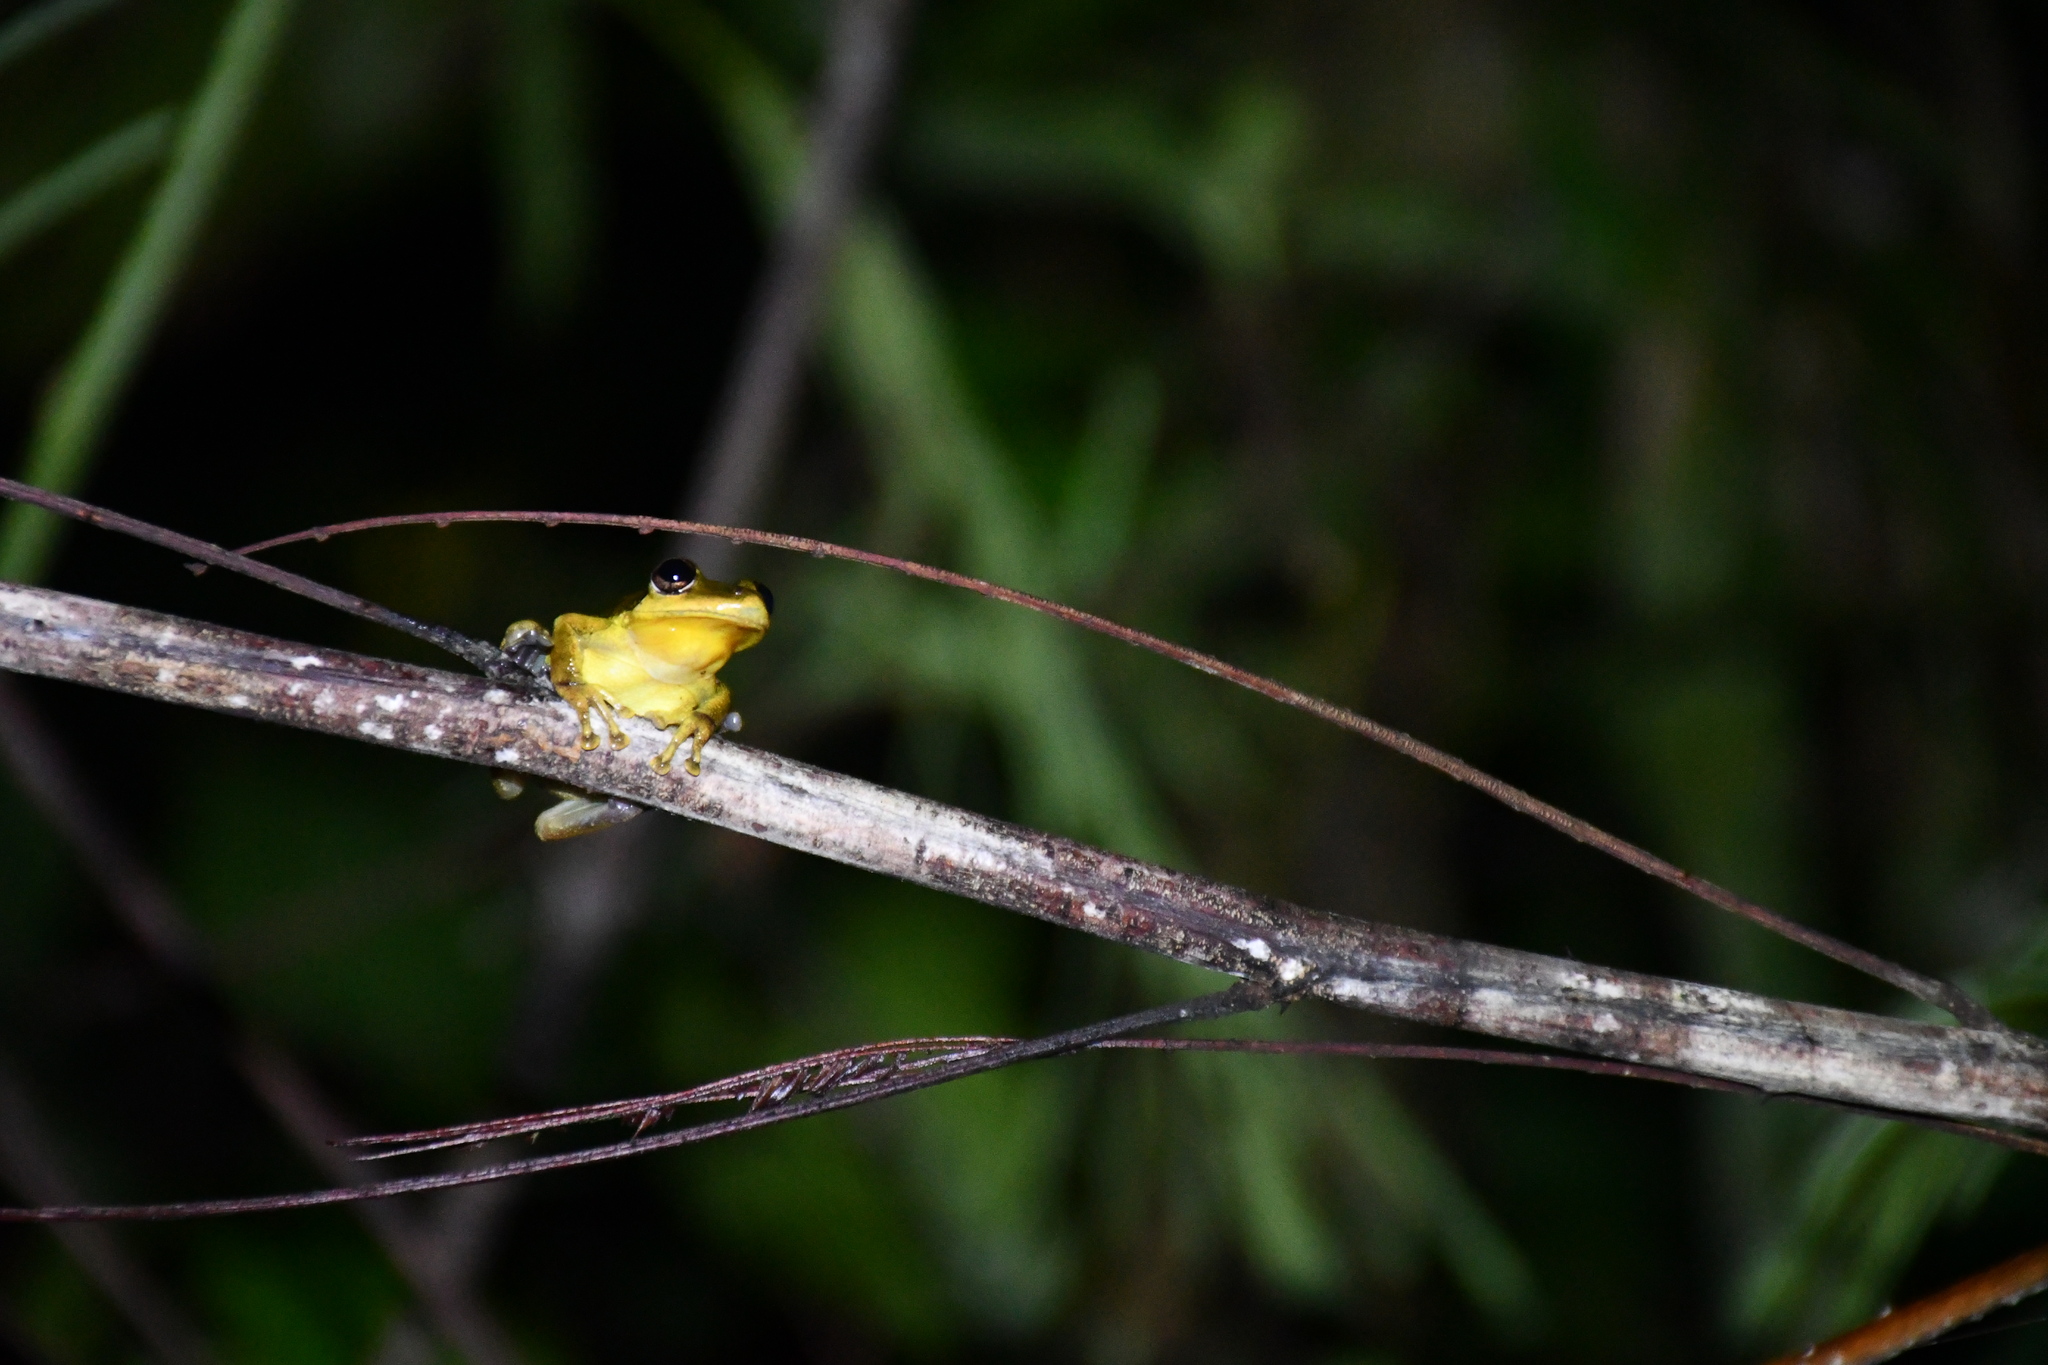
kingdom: Animalia
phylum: Chordata
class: Amphibia
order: Anura
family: Hylidae
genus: Scinax
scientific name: Scinax ruber
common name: Red snouted treefrog
